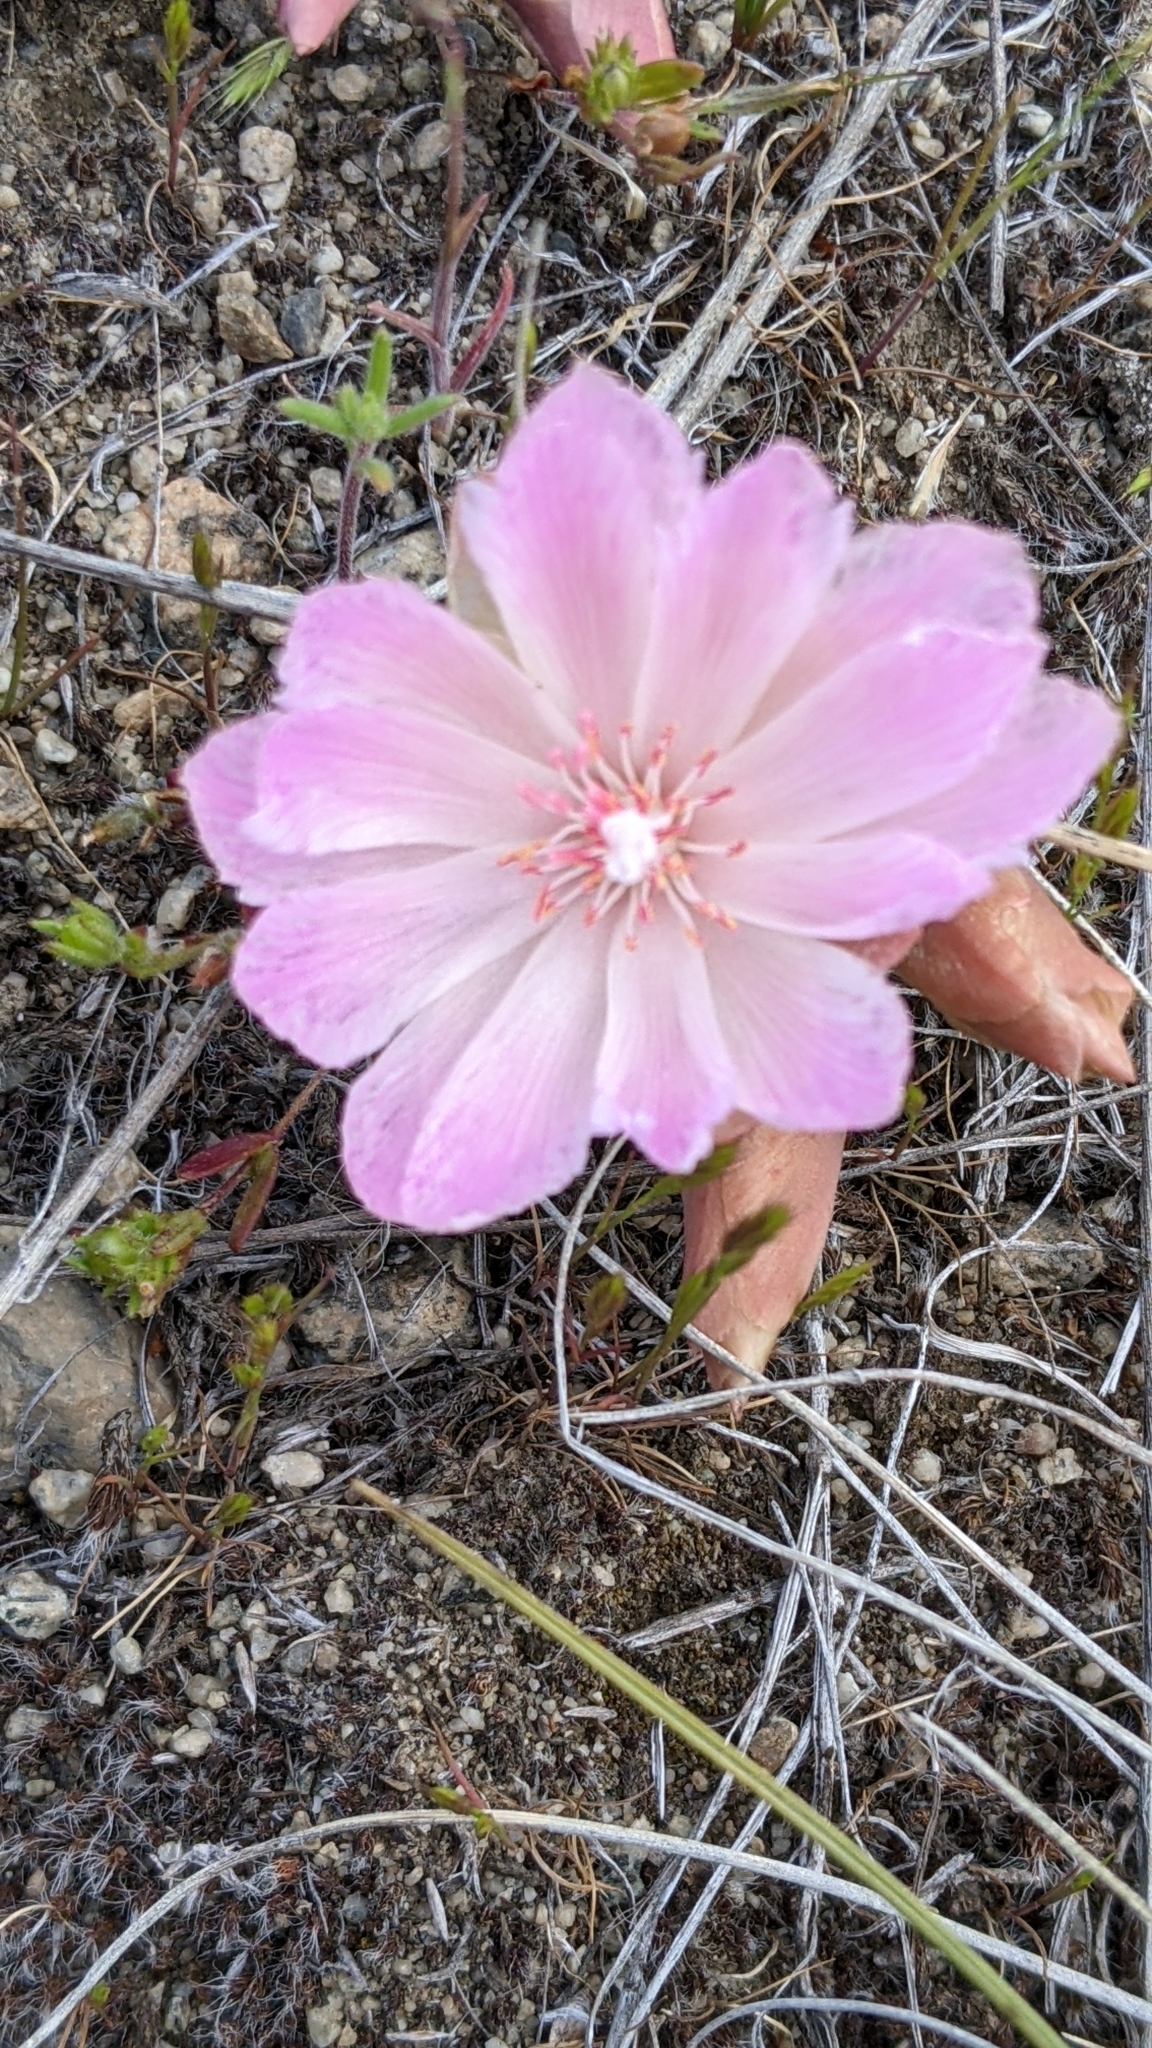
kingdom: Plantae
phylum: Tracheophyta
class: Magnoliopsida
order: Caryophyllales
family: Montiaceae
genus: Lewisia
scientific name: Lewisia rediviva
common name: Bitter-root
